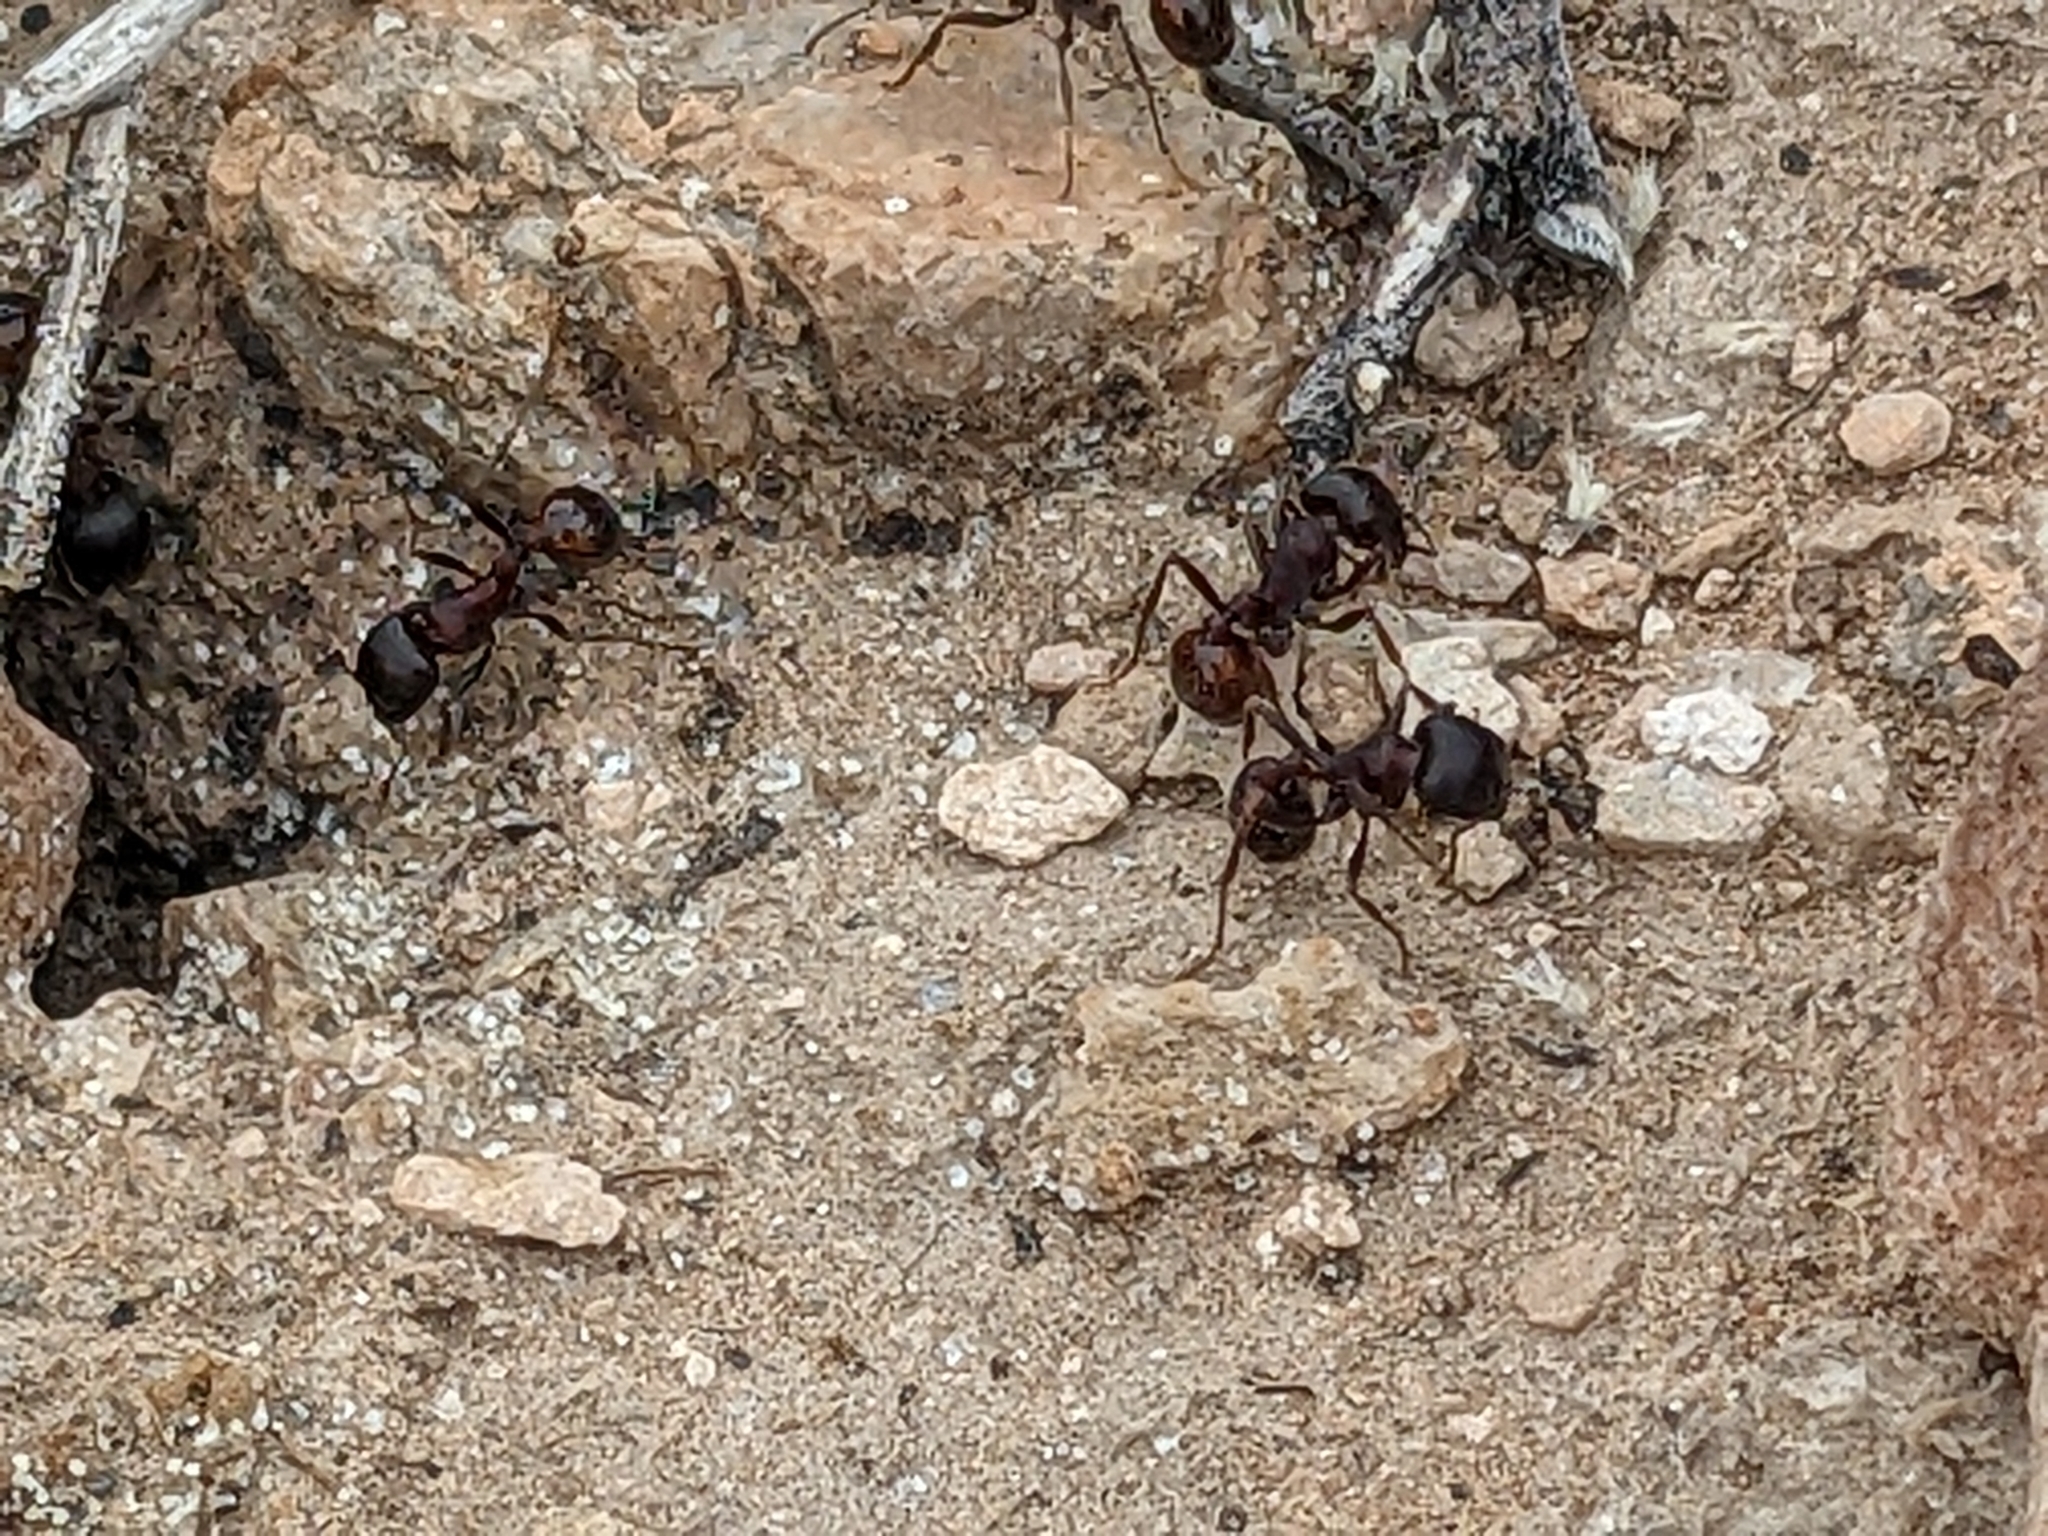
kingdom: Animalia
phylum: Arthropoda
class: Insecta
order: Hymenoptera
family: Formicidae
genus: Pogonomyrmex
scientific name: Pogonomyrmex rugosus
